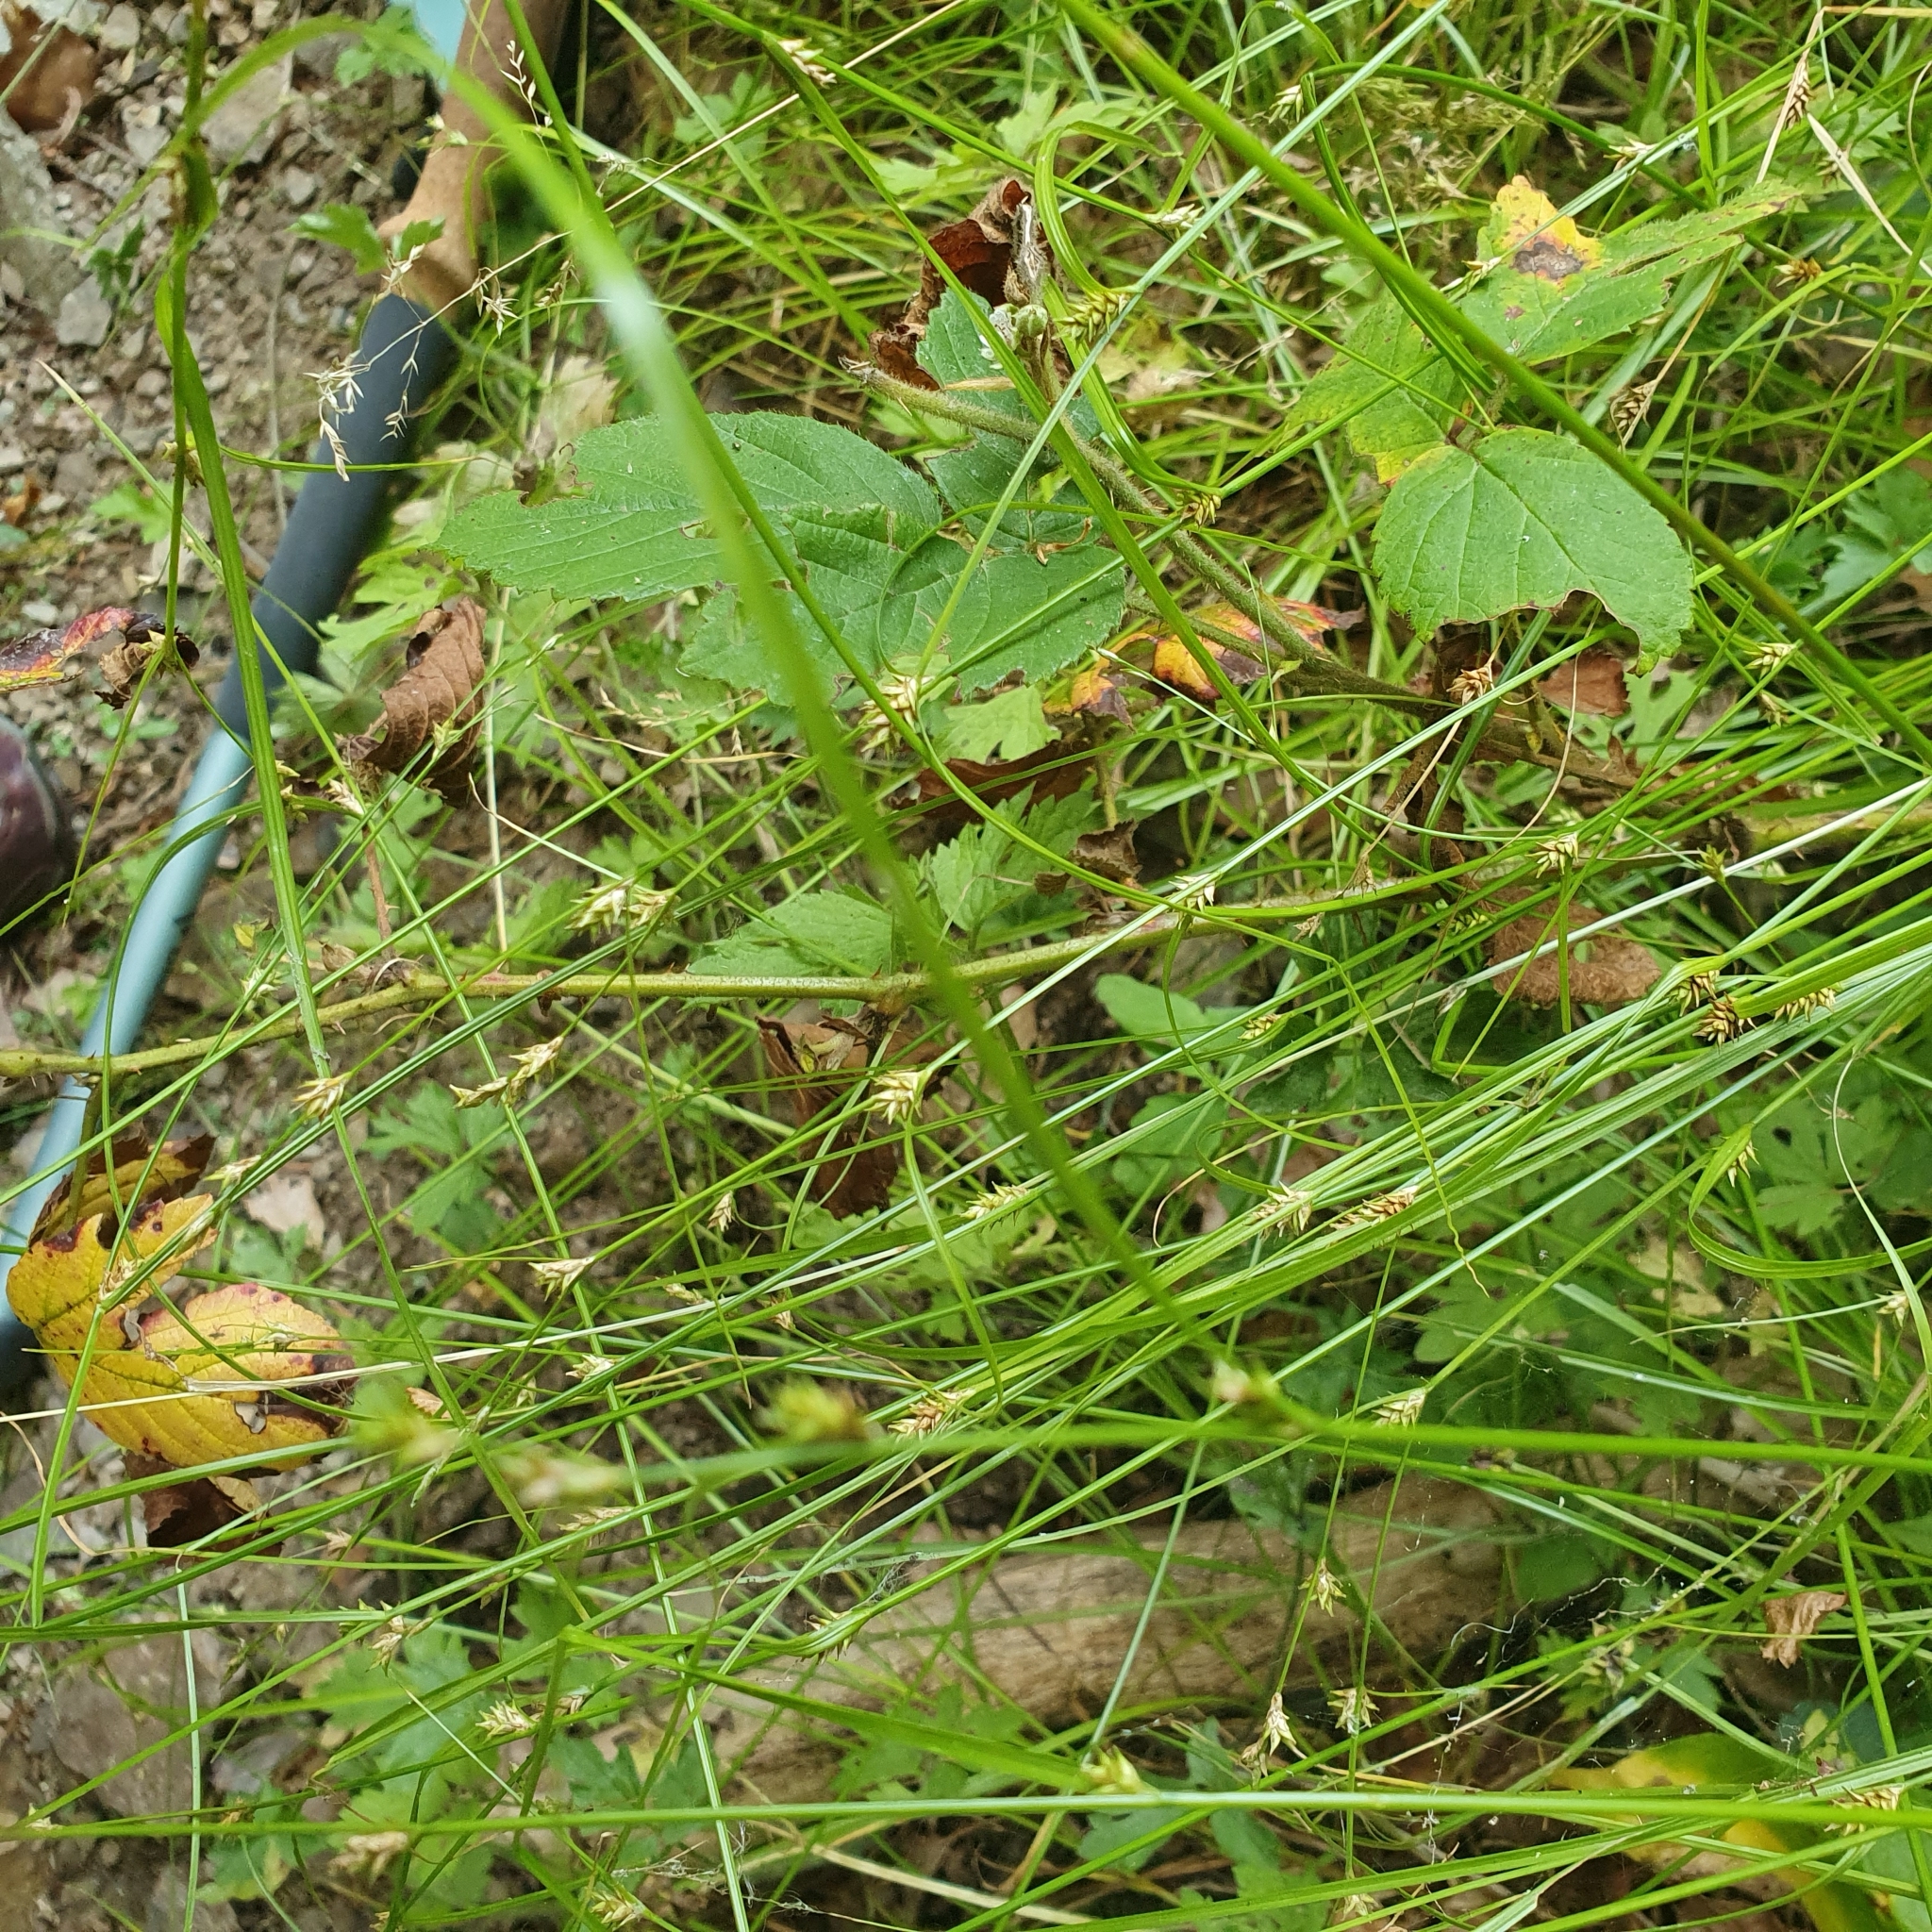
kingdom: Plantae
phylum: Tracheophyta
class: Liliopsida
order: Poales
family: Cyperaceae
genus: Carex
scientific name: Carex remota
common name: Remote sedge
